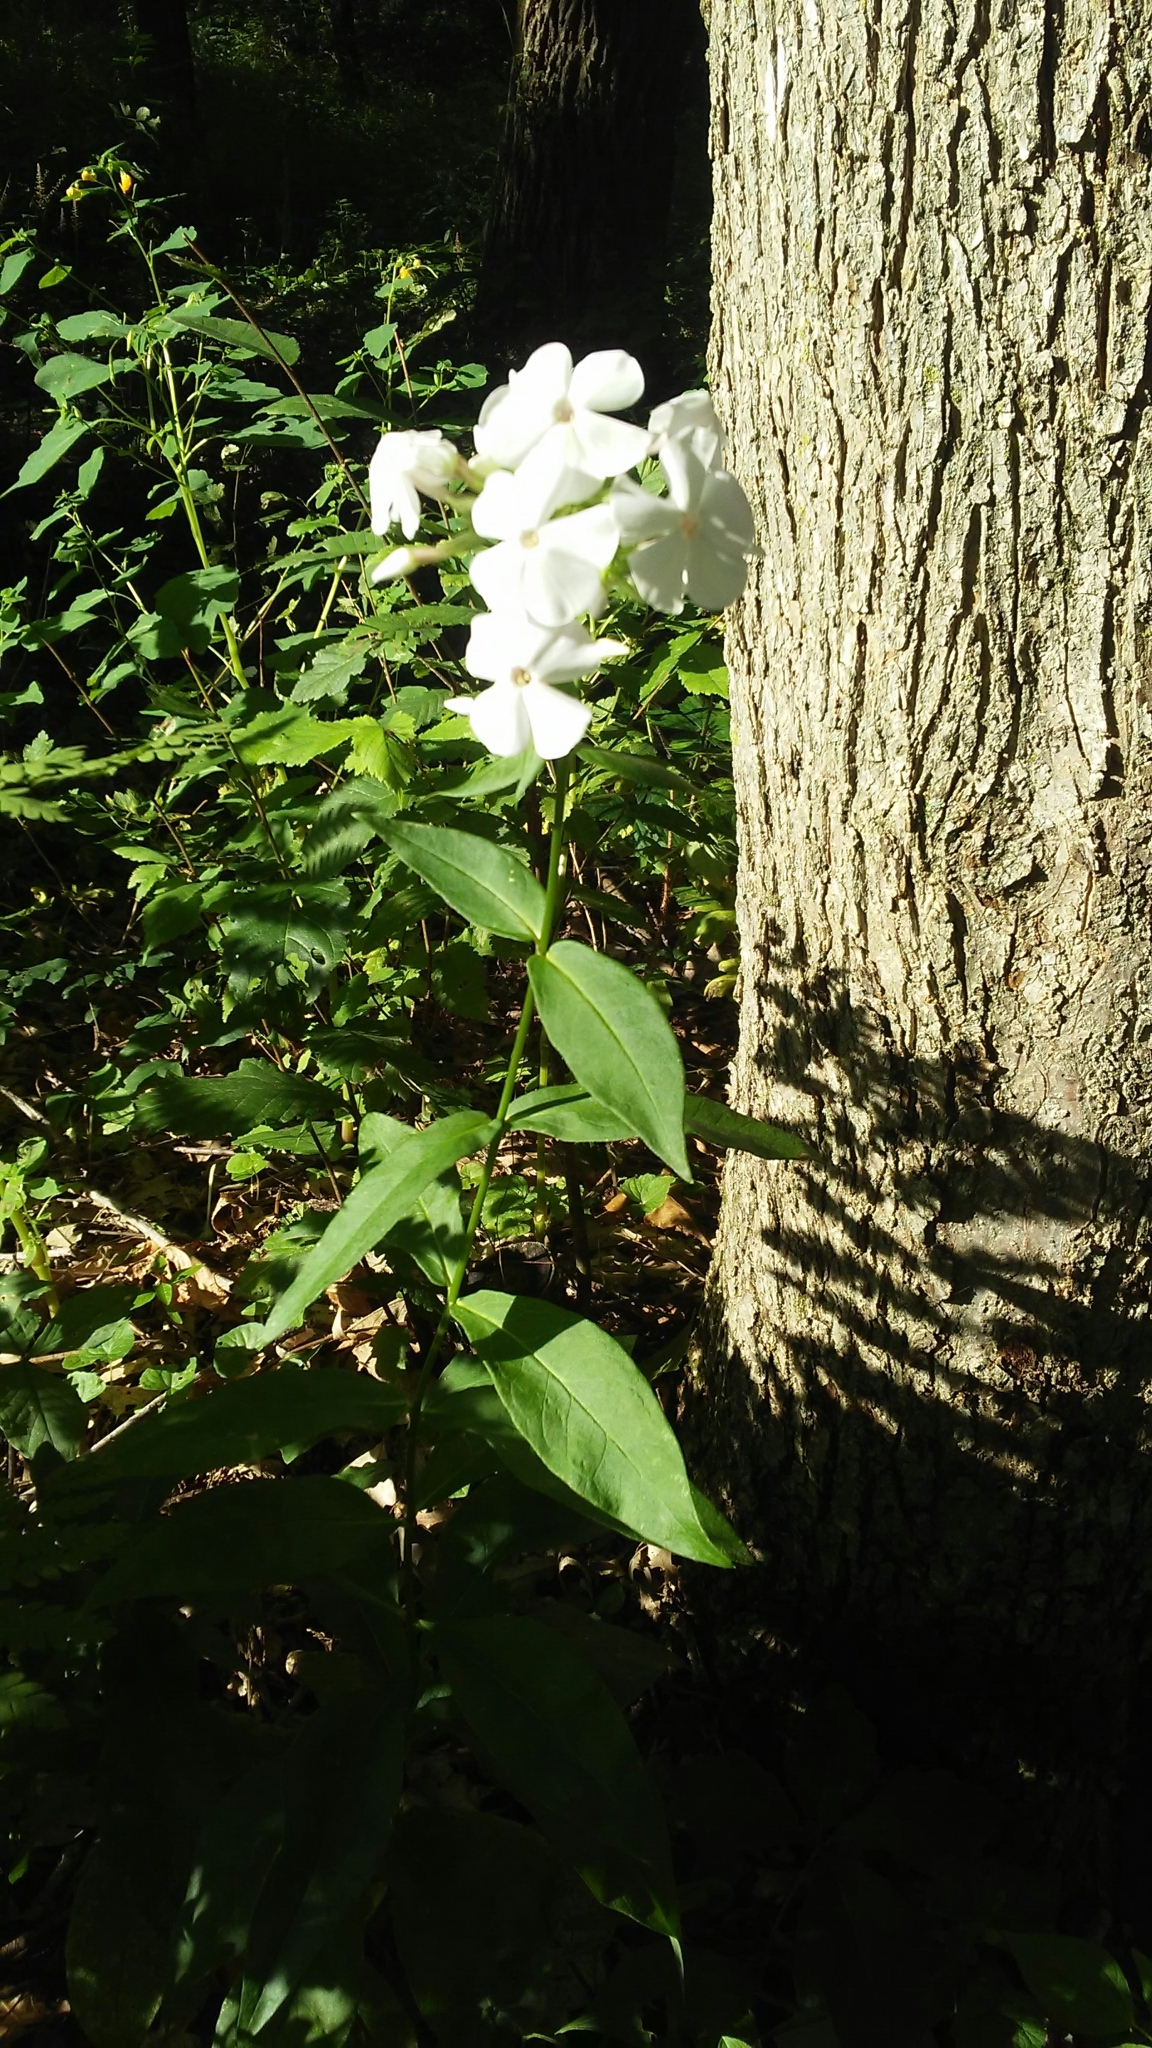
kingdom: Plantae
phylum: Tracheophyta
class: Magnoliopsida
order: Ericales
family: Polemoniaceae
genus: Phlox
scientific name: Phlox paniculata
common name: Fall phlox
